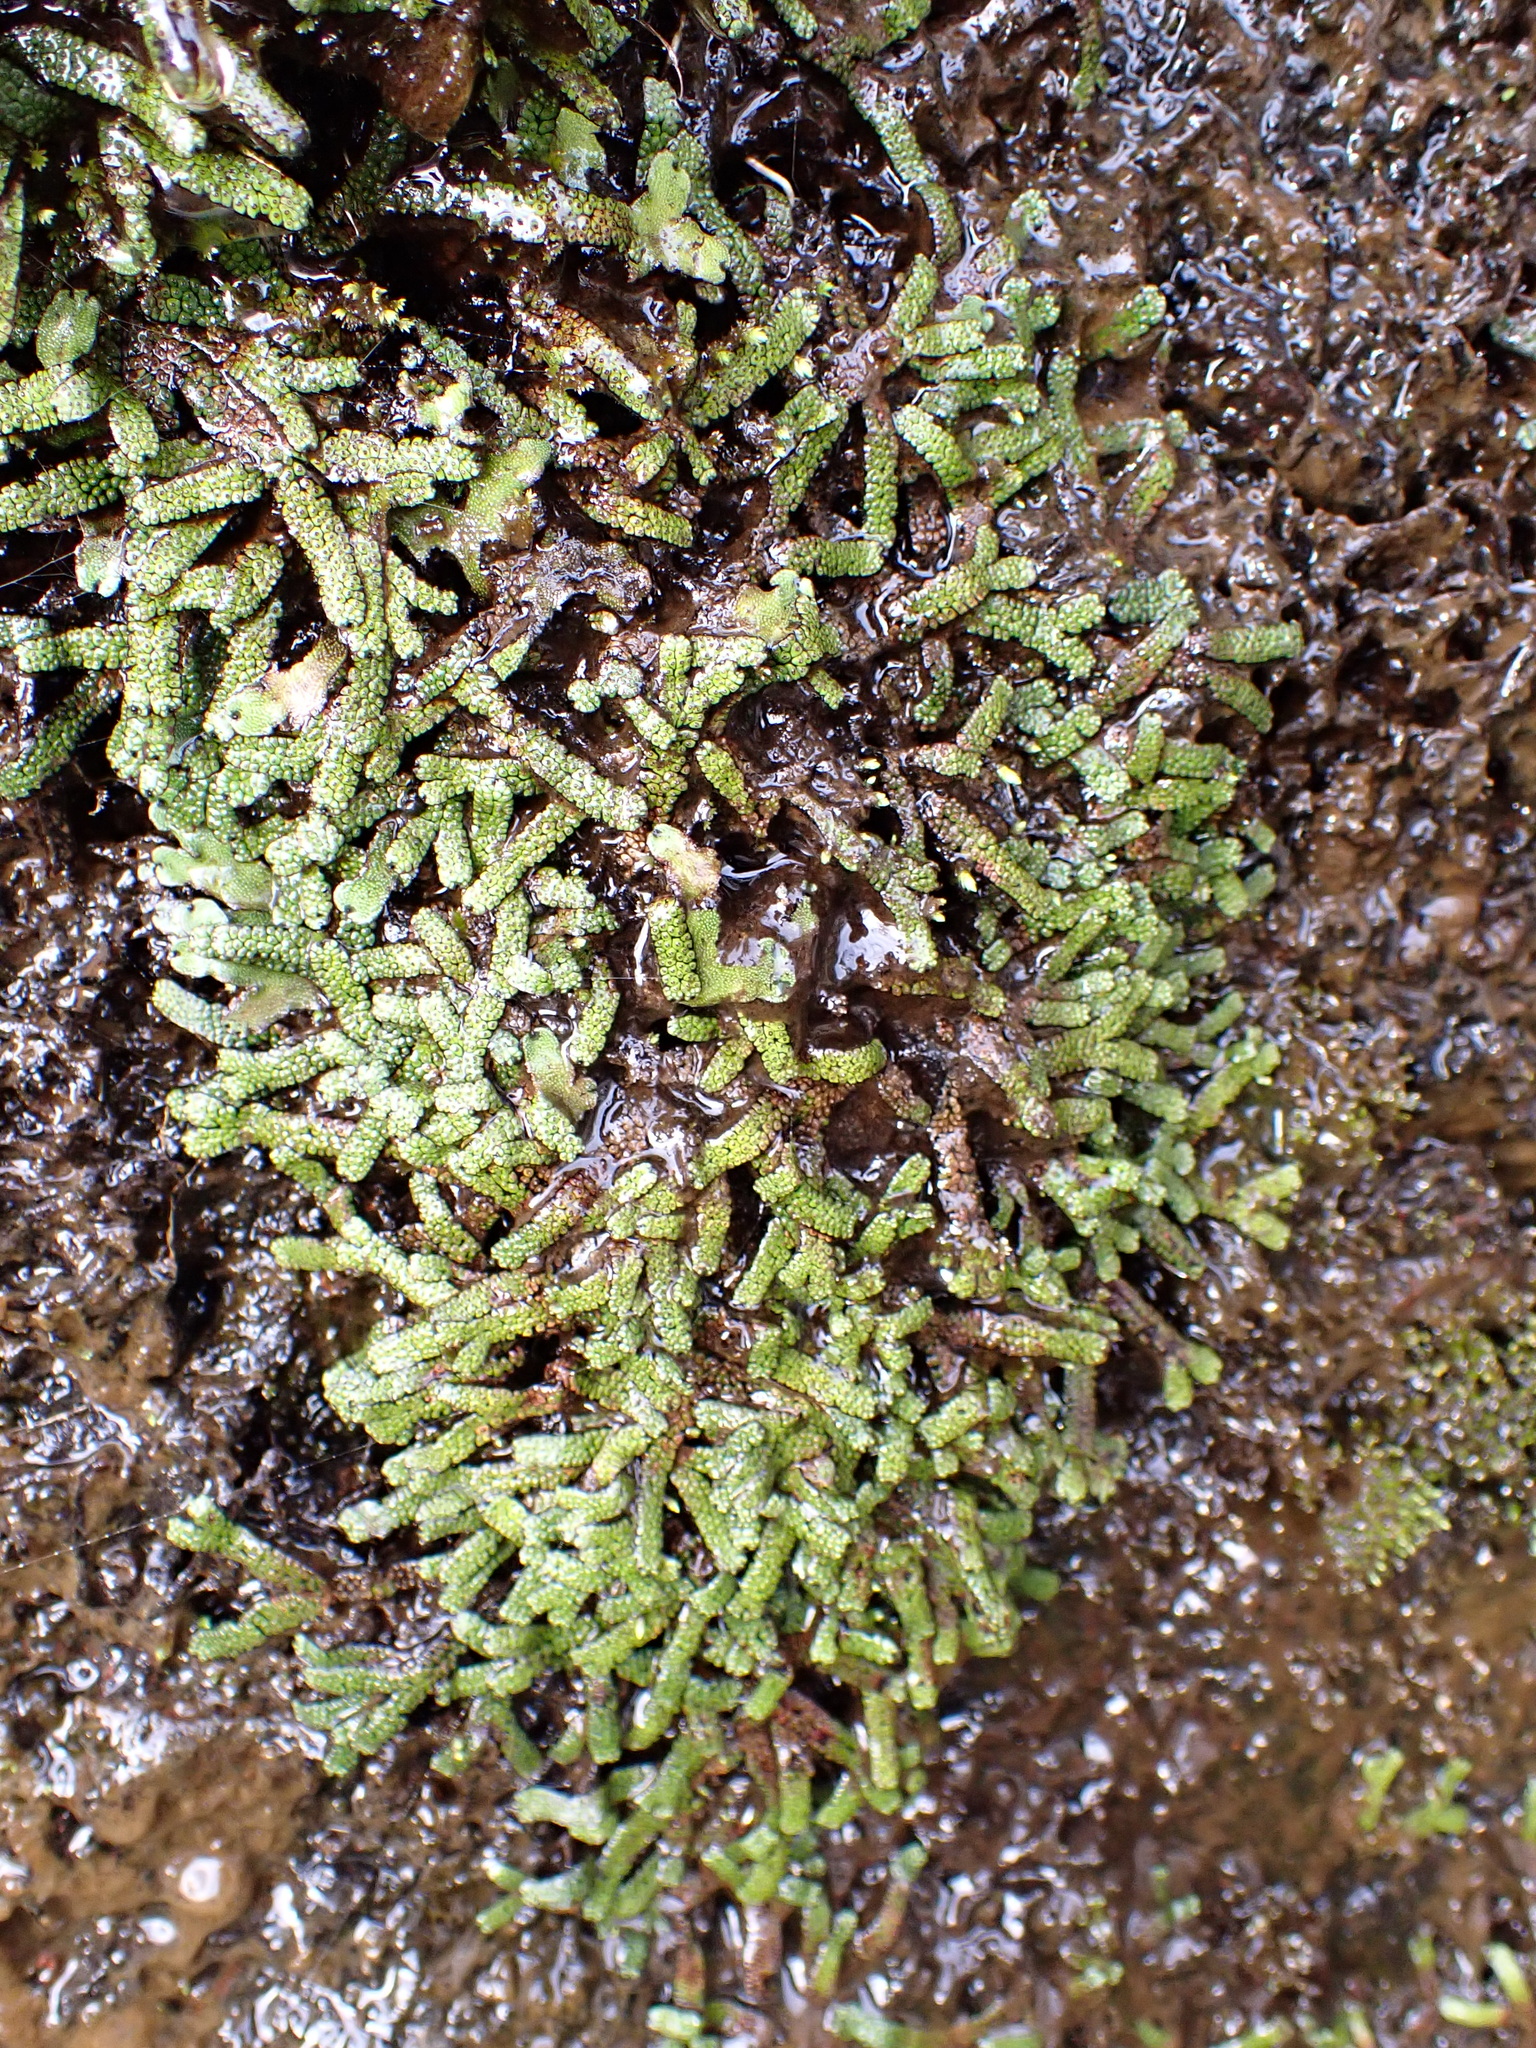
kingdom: Plantae
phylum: Marchantiophyta
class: Marchantiopsida
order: Marchantiales
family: Marchantiaceae
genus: Marchantia
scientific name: Marchantia macropora
